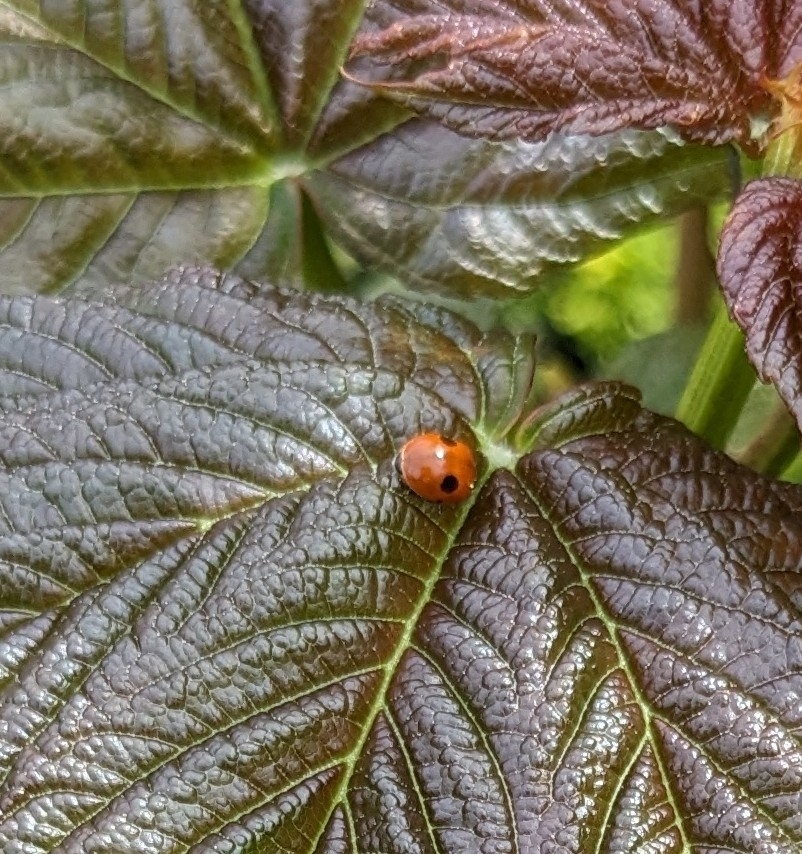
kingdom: Animalia
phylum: Arthropoda
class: Insecta
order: Coleoptera
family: Coccinellidae
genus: Adalia
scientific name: Adalia bipunctata
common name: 2-spot ladybird
